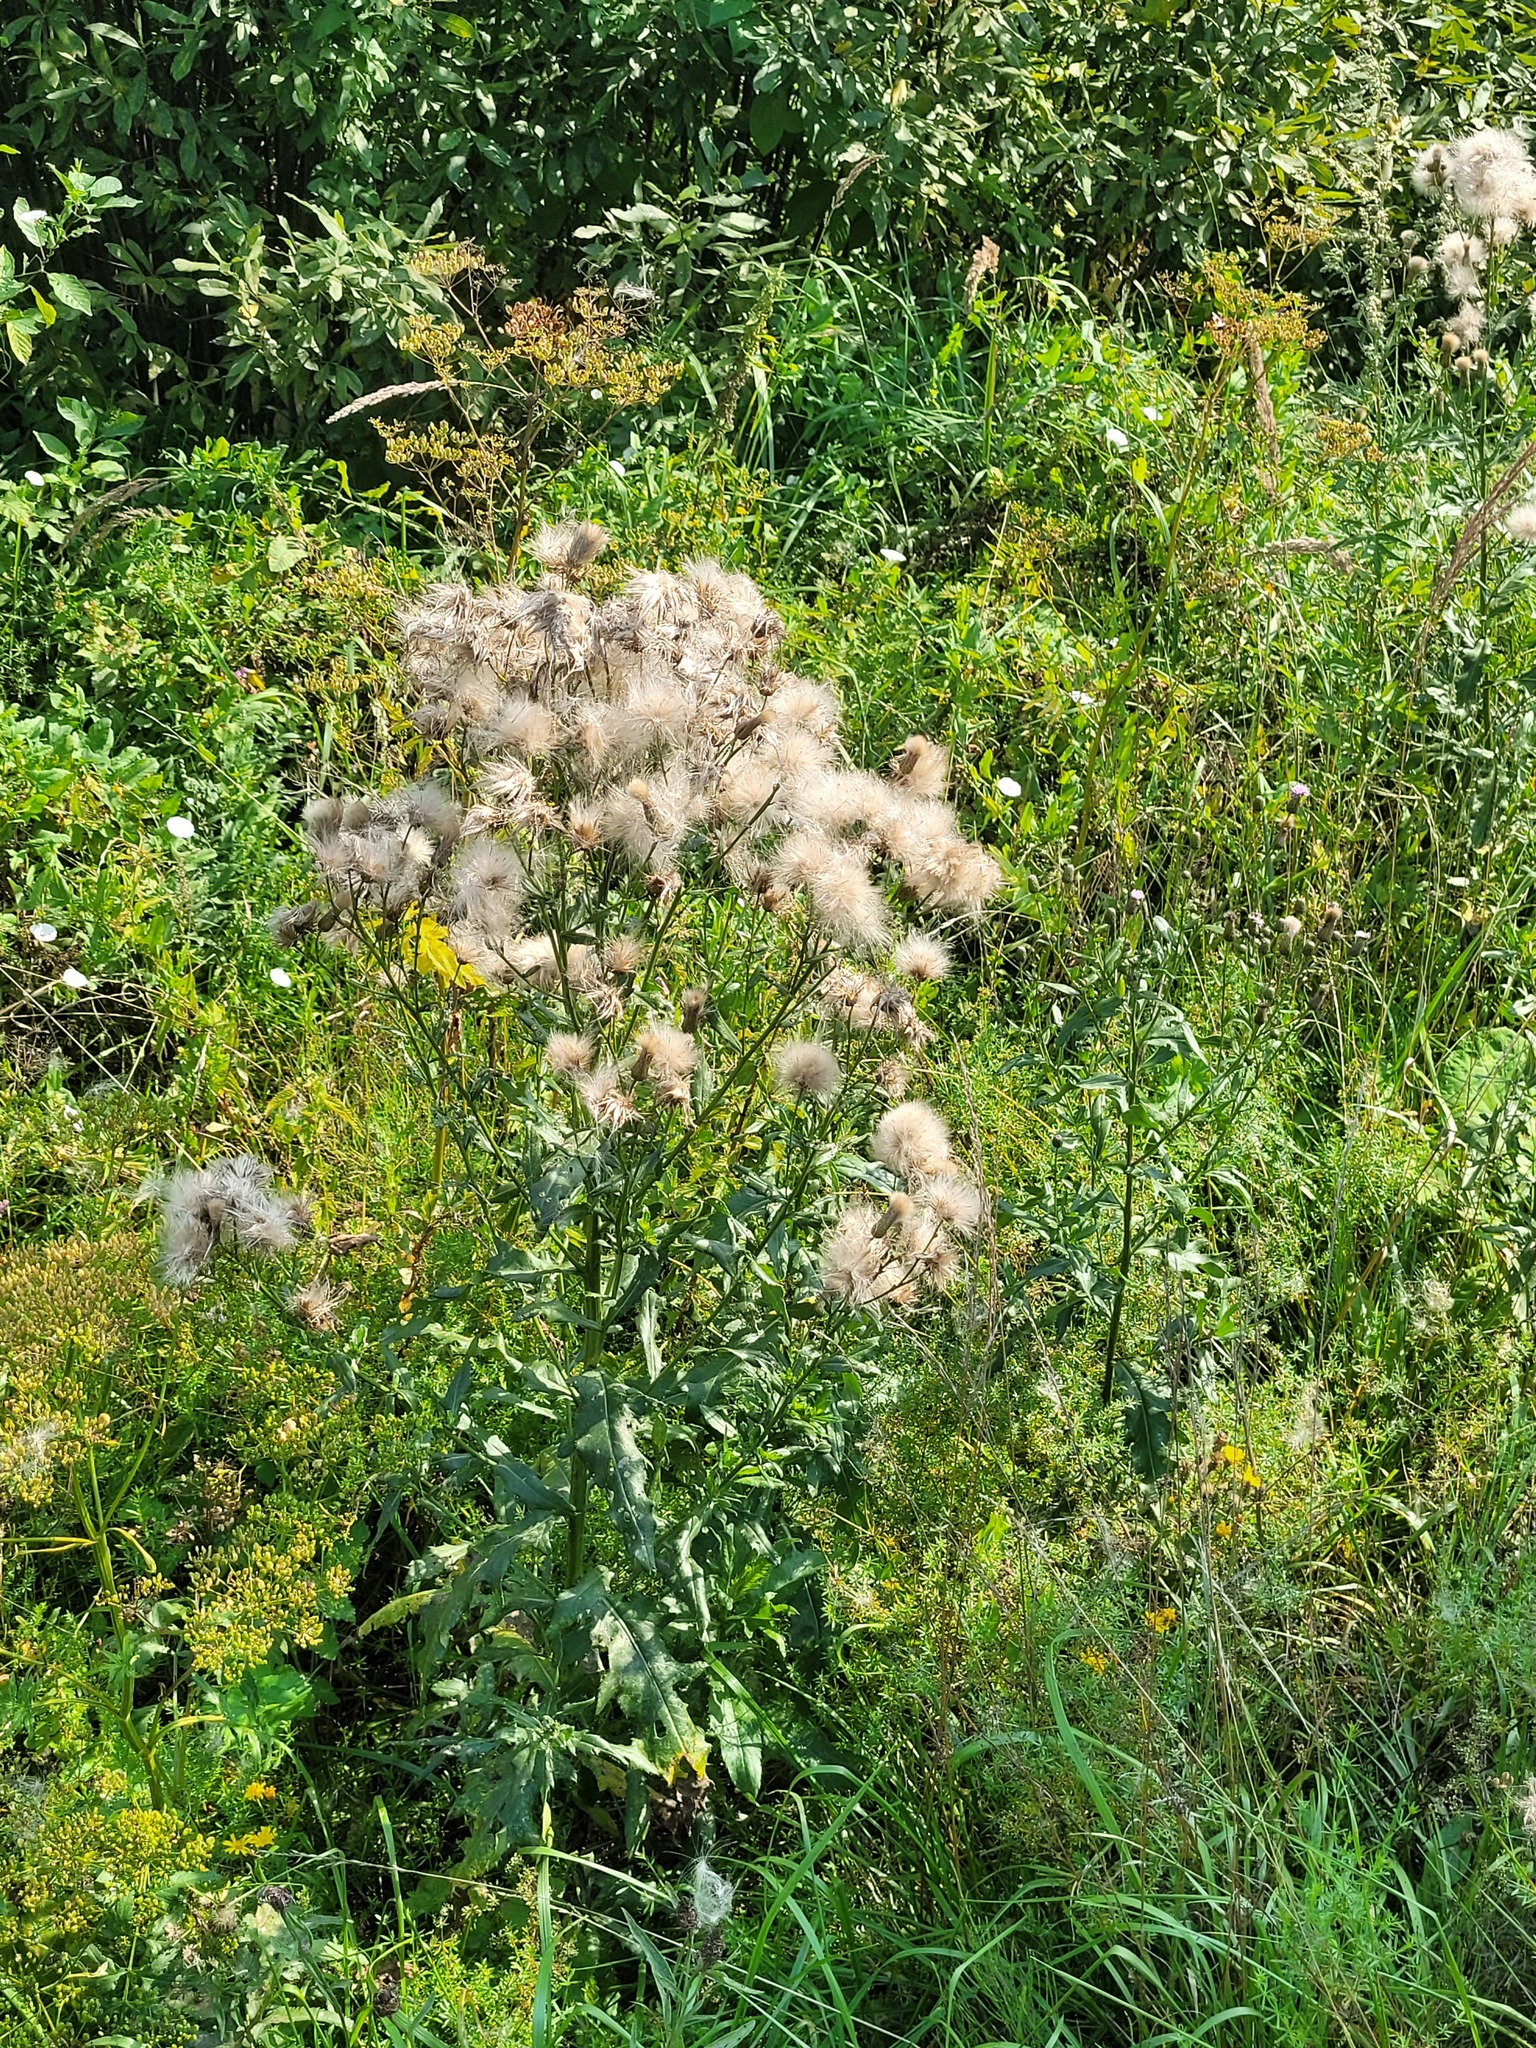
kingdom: Plantae
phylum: Tracheophyta
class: Magnoliopsida
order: Asterales
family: Asteraceae
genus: Cirsium
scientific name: Cirsium arvense
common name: Creeping thistle
